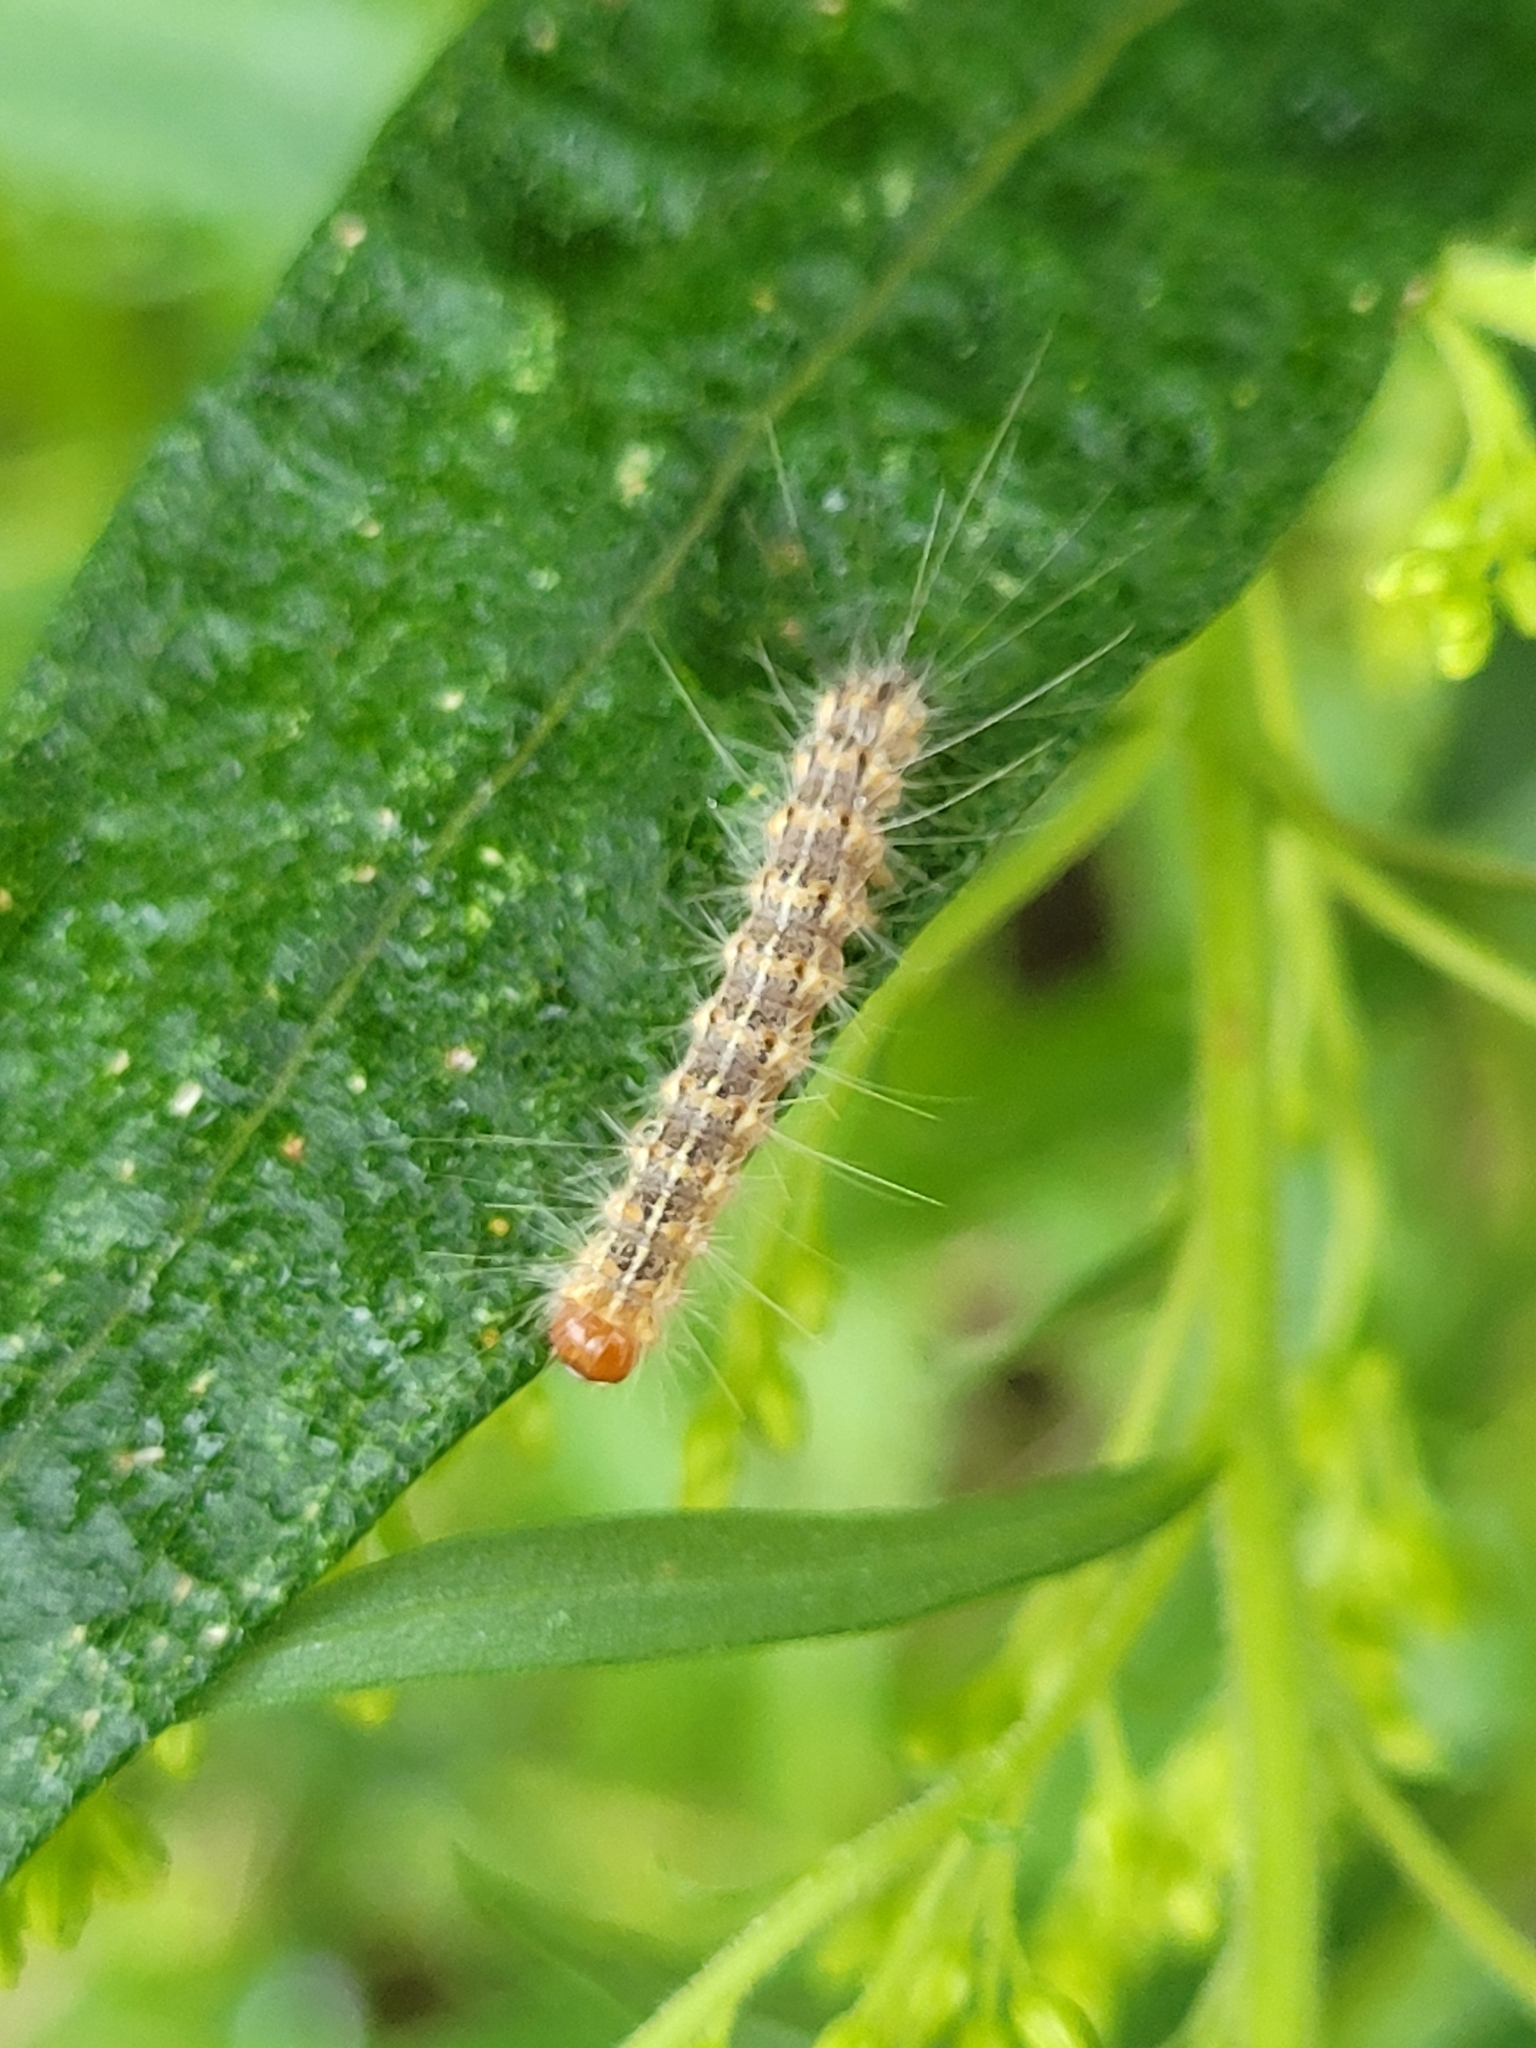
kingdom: Animalia
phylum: Arthropoda
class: Insecta
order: Lepidoptera
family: Erebidae
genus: Hyphantria
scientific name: Hyphantria cunea
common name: American white moth
